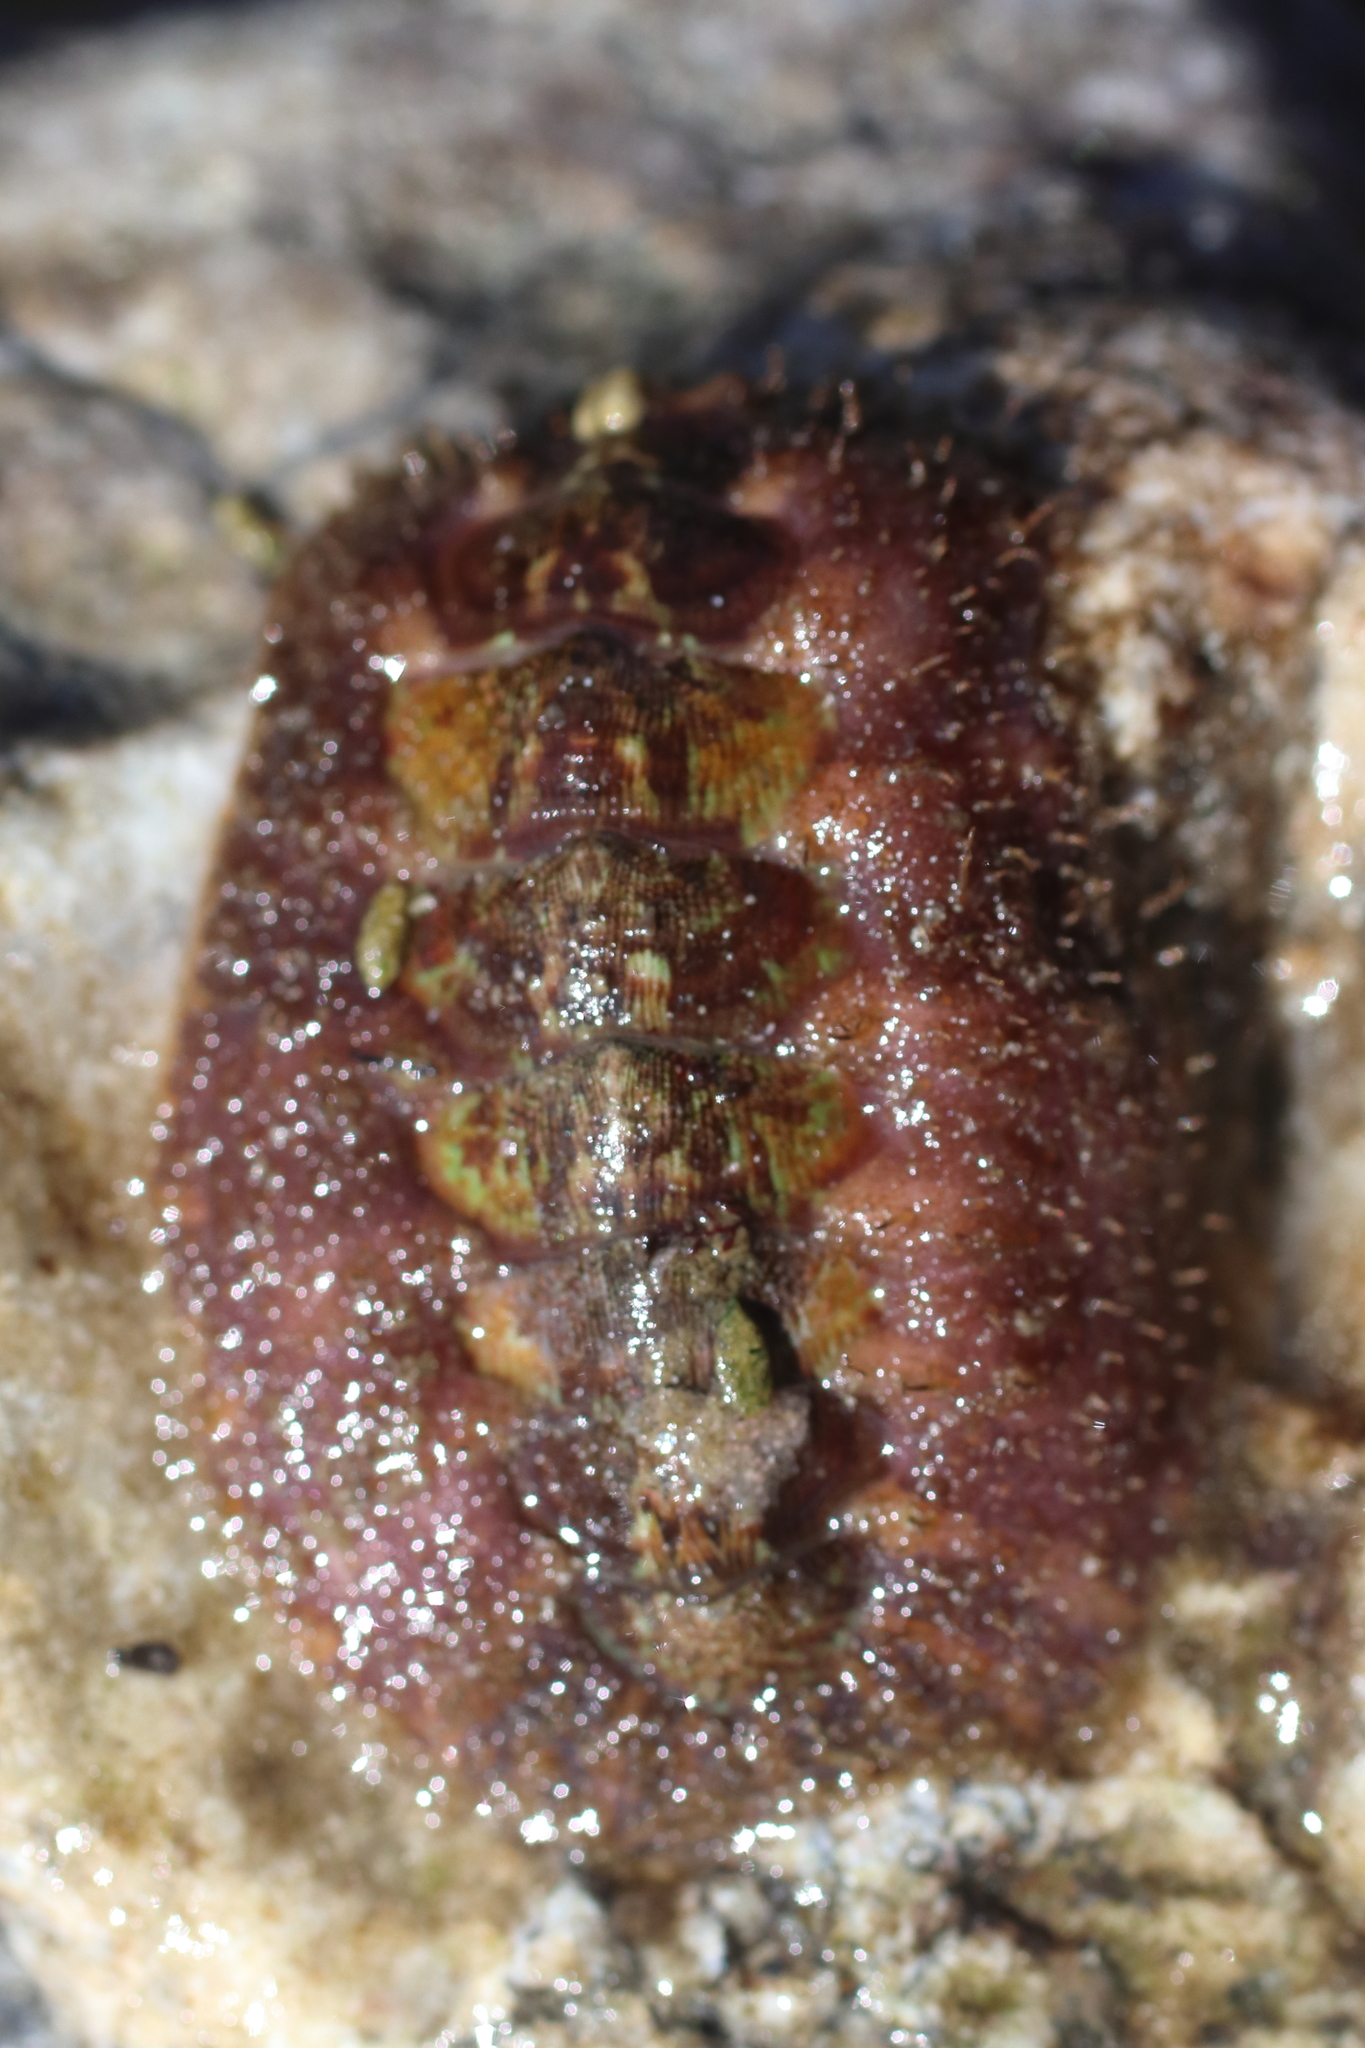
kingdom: Animalia
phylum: Mollusca
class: Polyplacophora
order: Chitonida
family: Mopaliidae
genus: Mopalia
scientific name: Mopalia ciliata
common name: Hairy chiton
